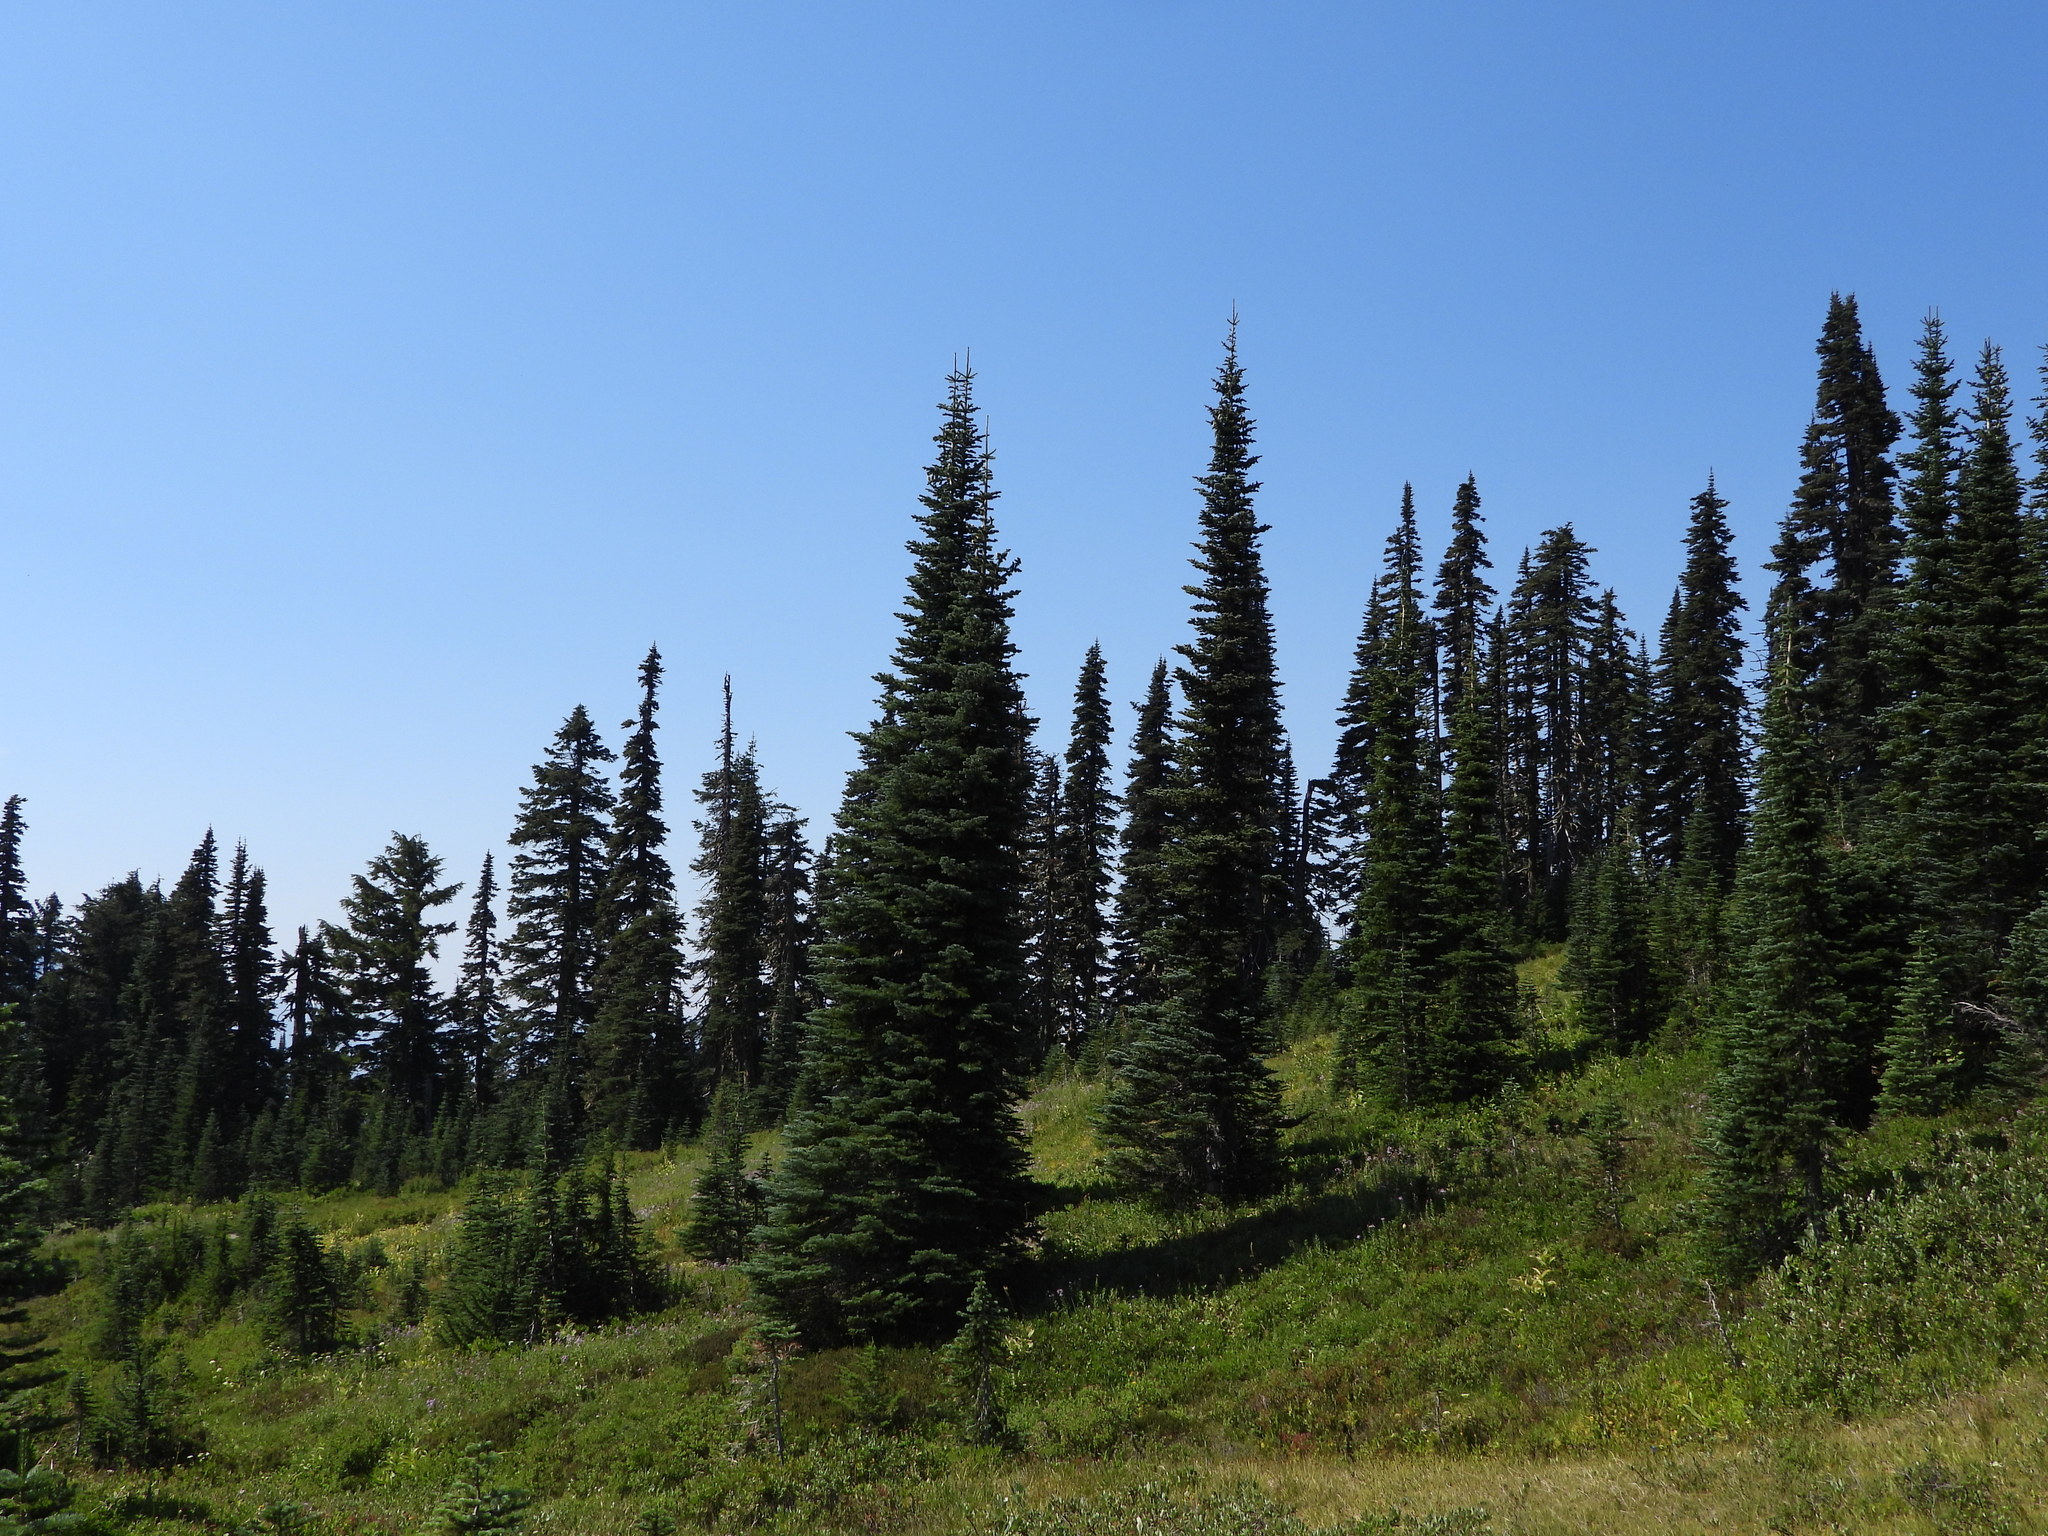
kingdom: Plantae
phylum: Tracheophyta
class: Pinopsida
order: Pinales
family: Pinaceae
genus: Abies
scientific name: Abies lasiocarpa
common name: Subalpine fir
